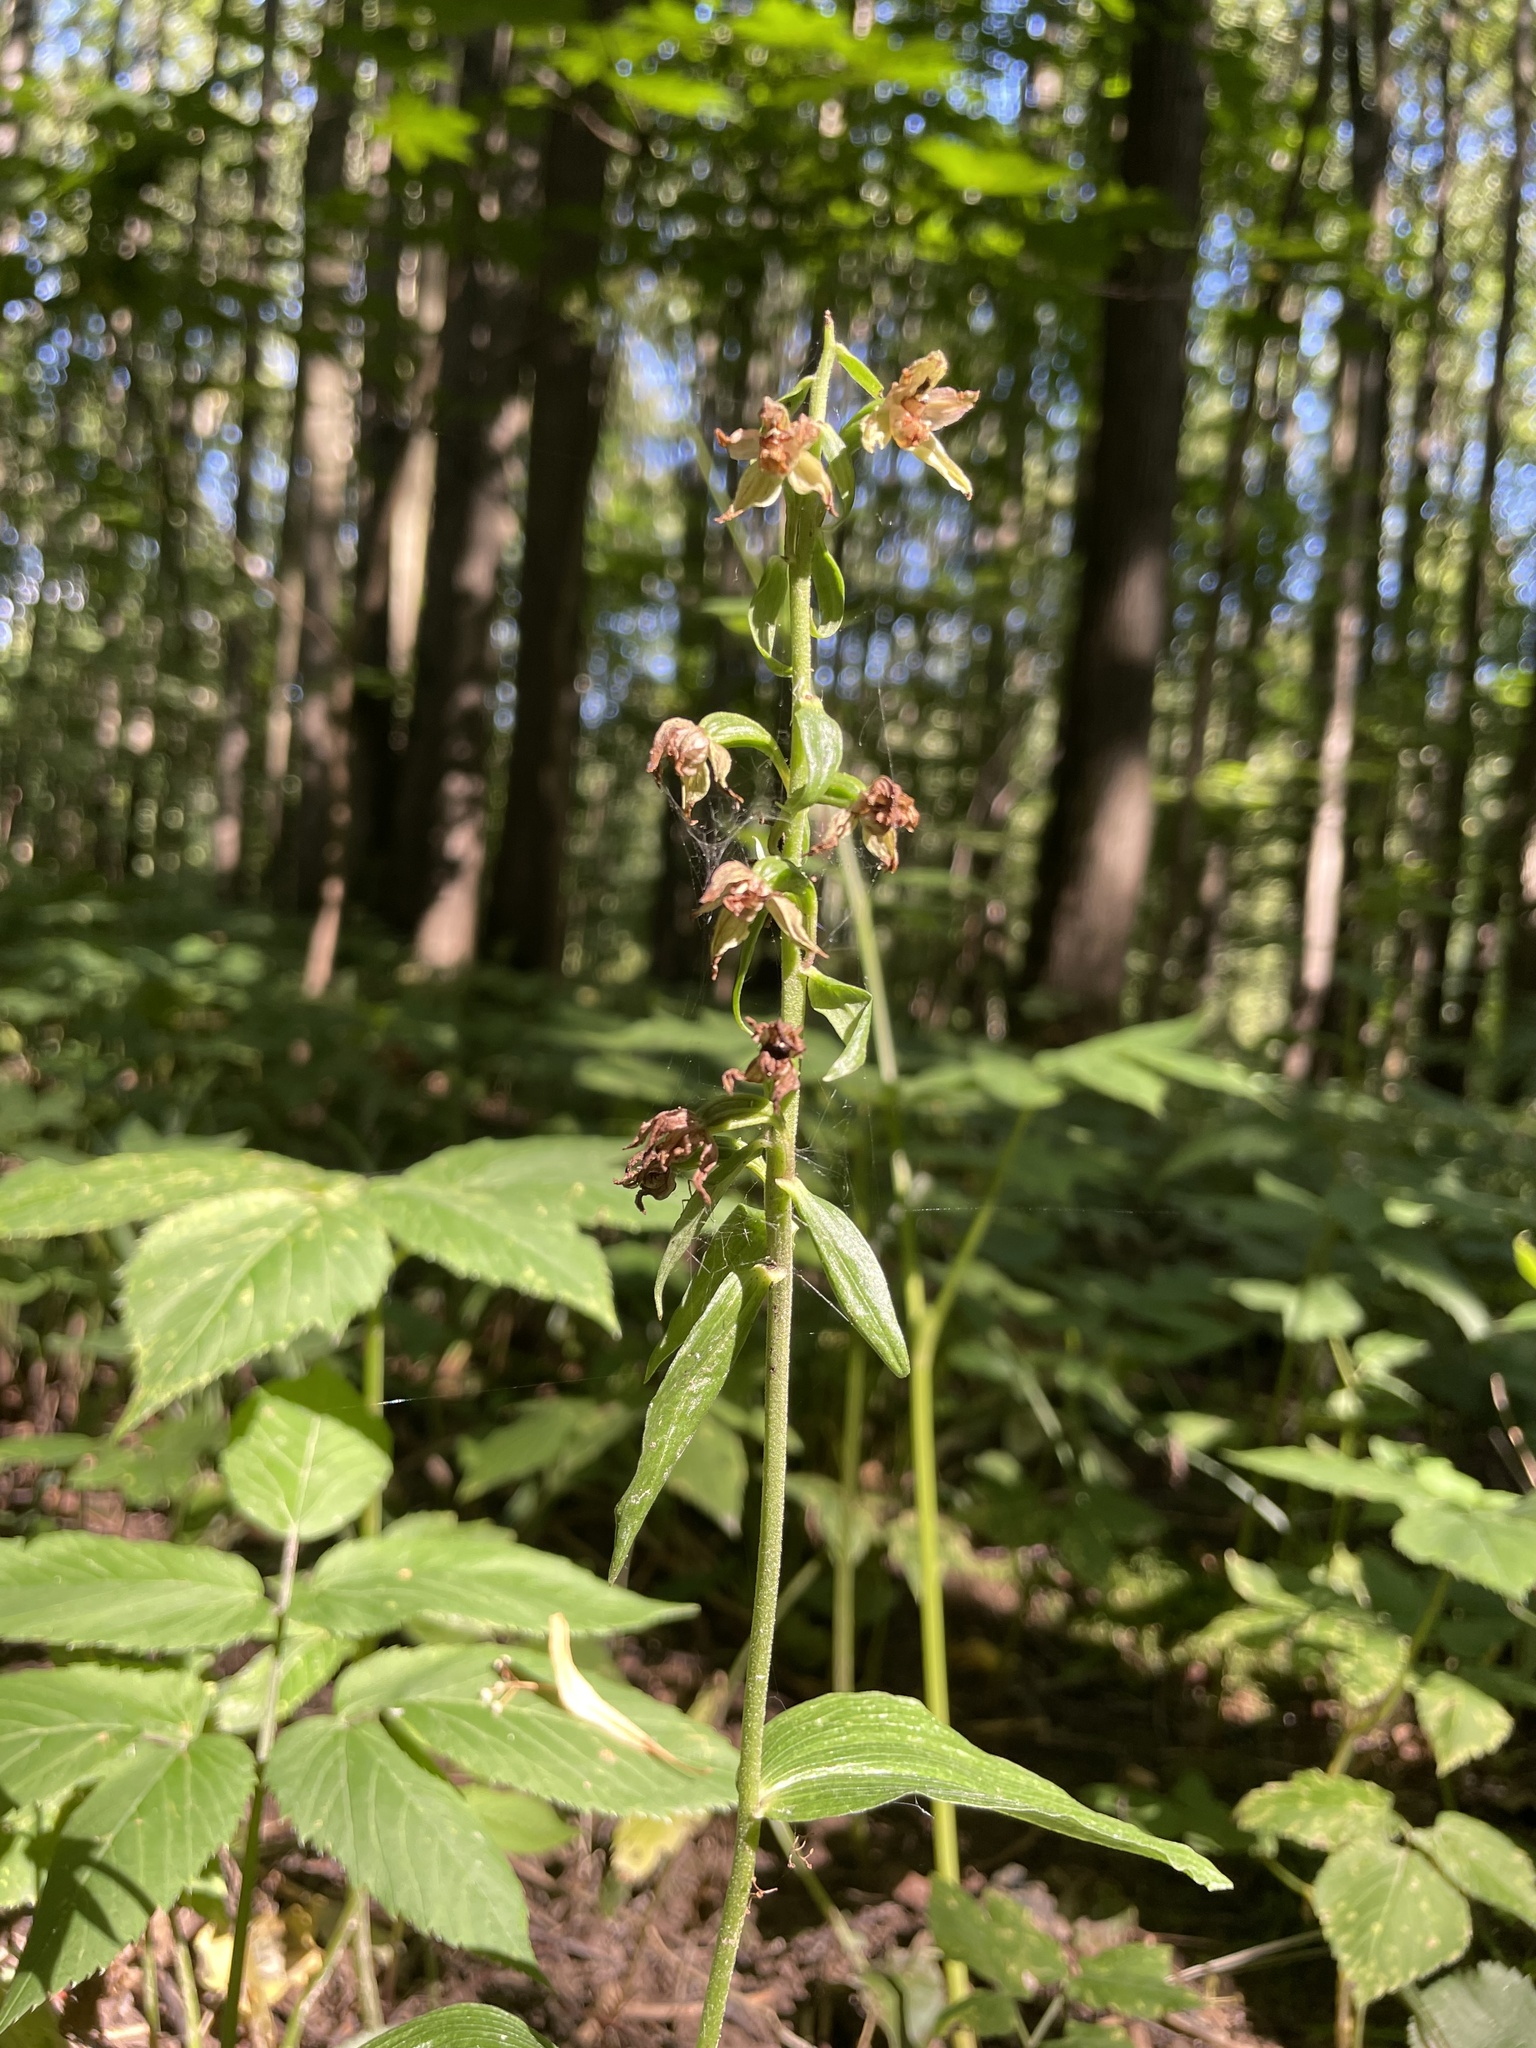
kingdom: Plantae
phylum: Tracheophyta
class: Liliopsida
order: Asparagales
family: Orchidaceae
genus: Epipactis
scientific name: Epipactis helleborine
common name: Broad-leaved helleborine
